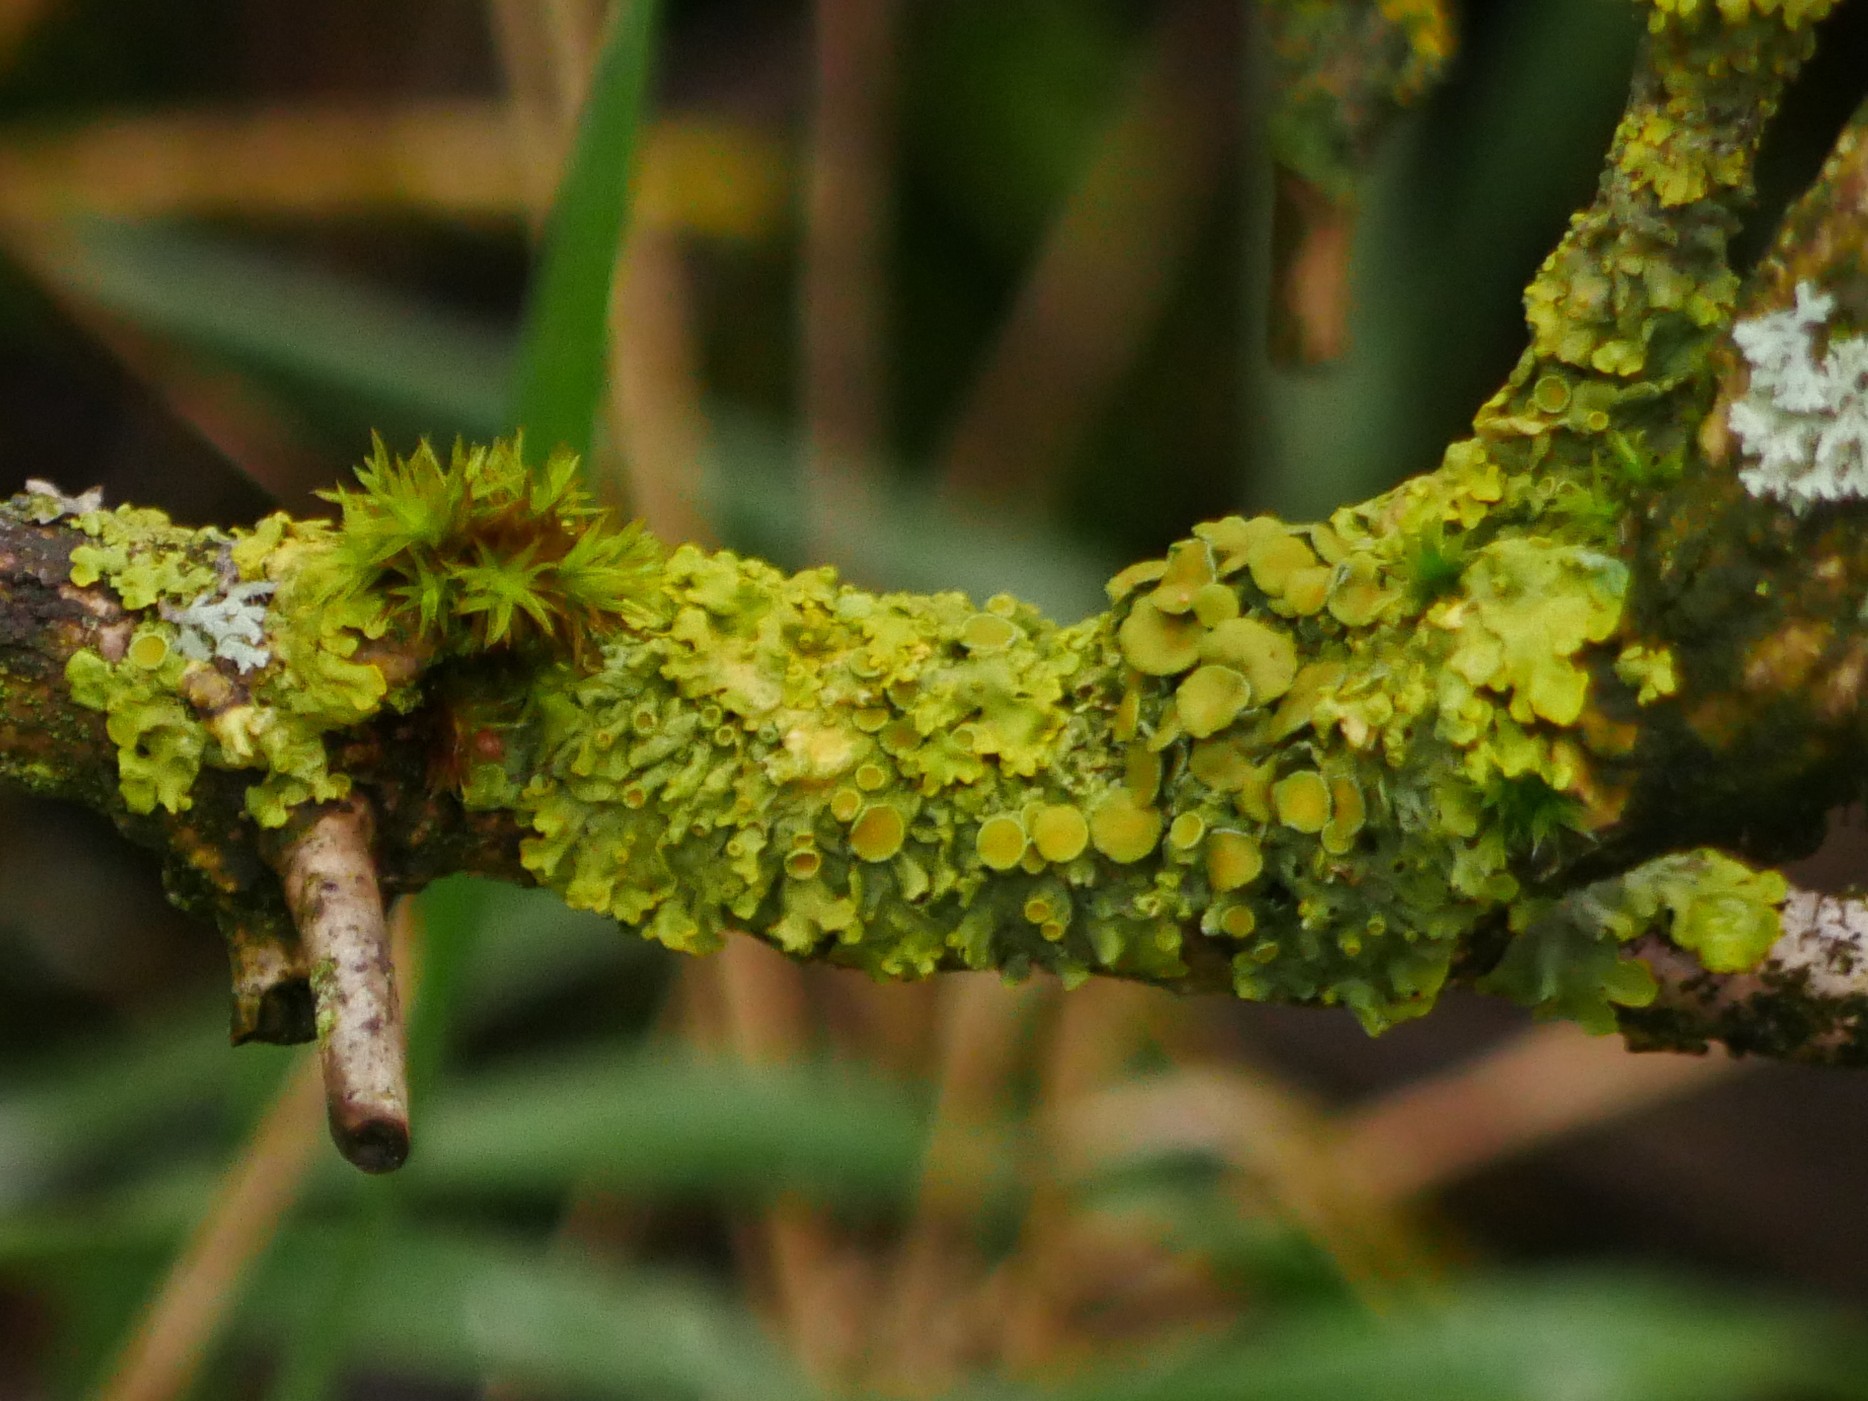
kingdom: Fungi
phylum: Ascomycota
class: Lecanoromycetes
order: Teloschistales
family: Teloschistaceae
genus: Xanthoria
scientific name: Xanthoria parietina
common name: Common orange lichen
